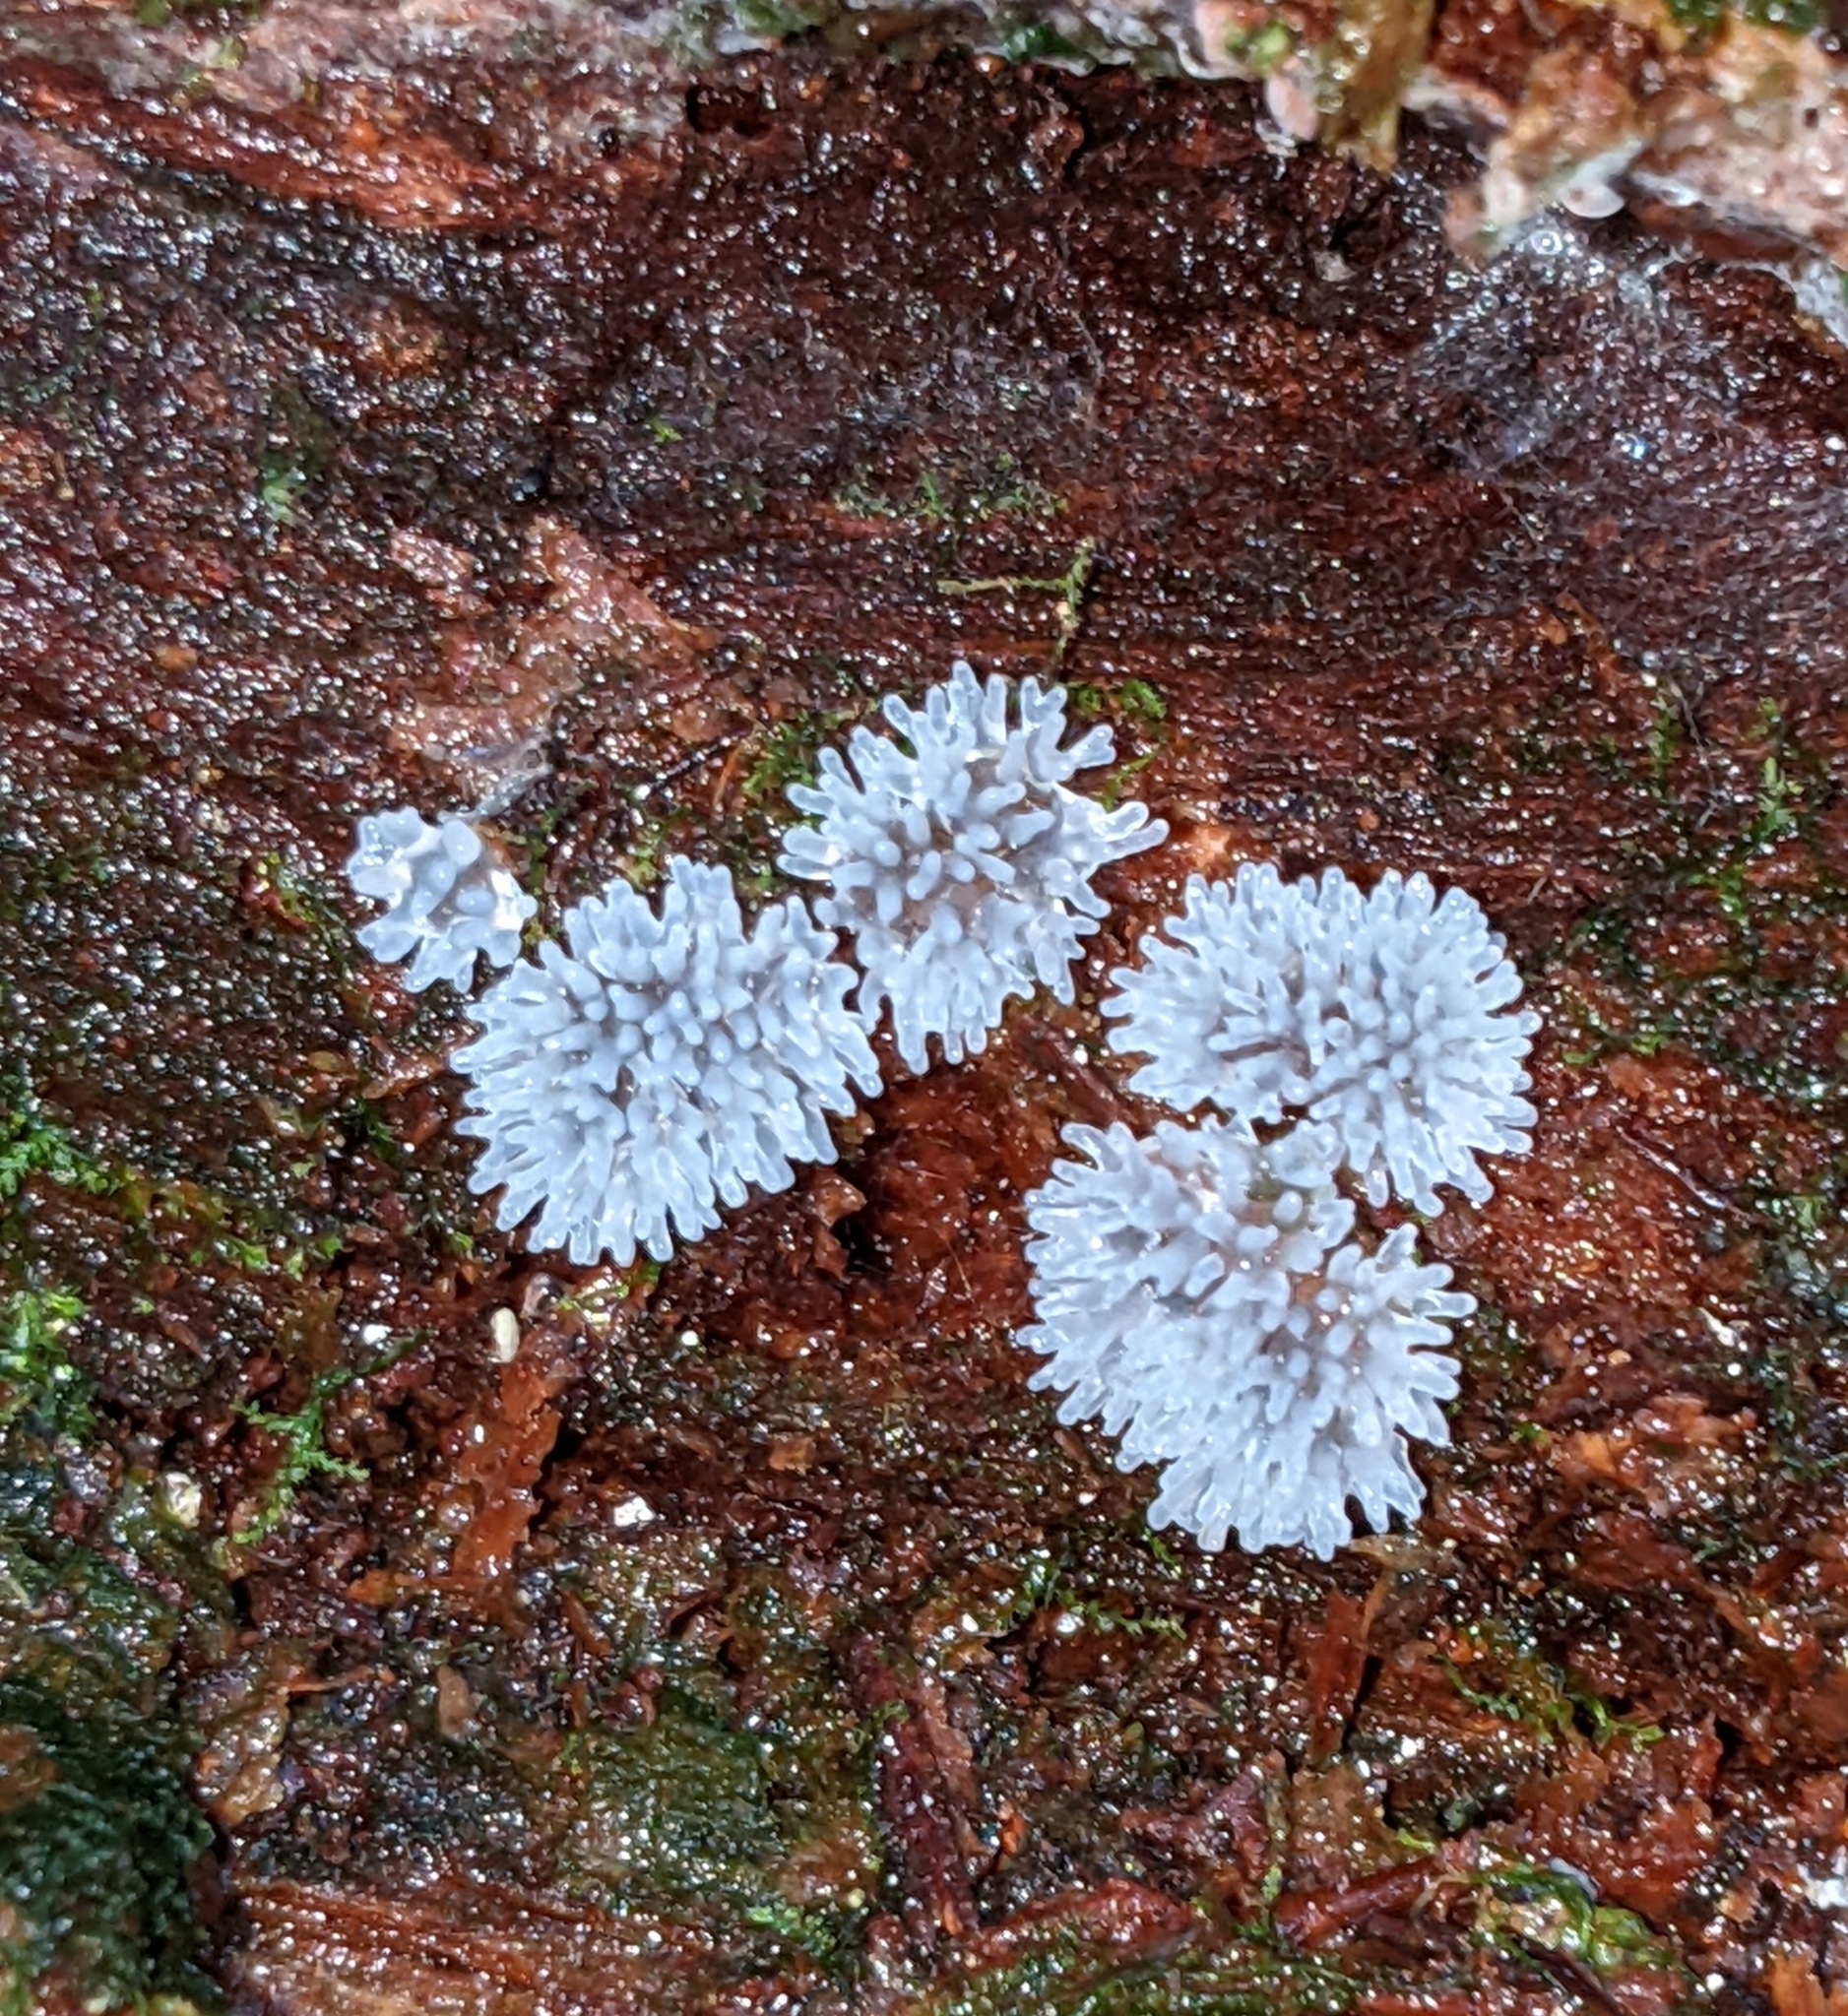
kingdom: Protozoa
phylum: Mycetozoa
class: Protosteliomycetes
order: Ceratiomyxales
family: Ceratiomyxaceae
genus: Ceratiomyxa
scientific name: Ceratiomyxa fruticulosa
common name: Honeycomb coral slime mold
